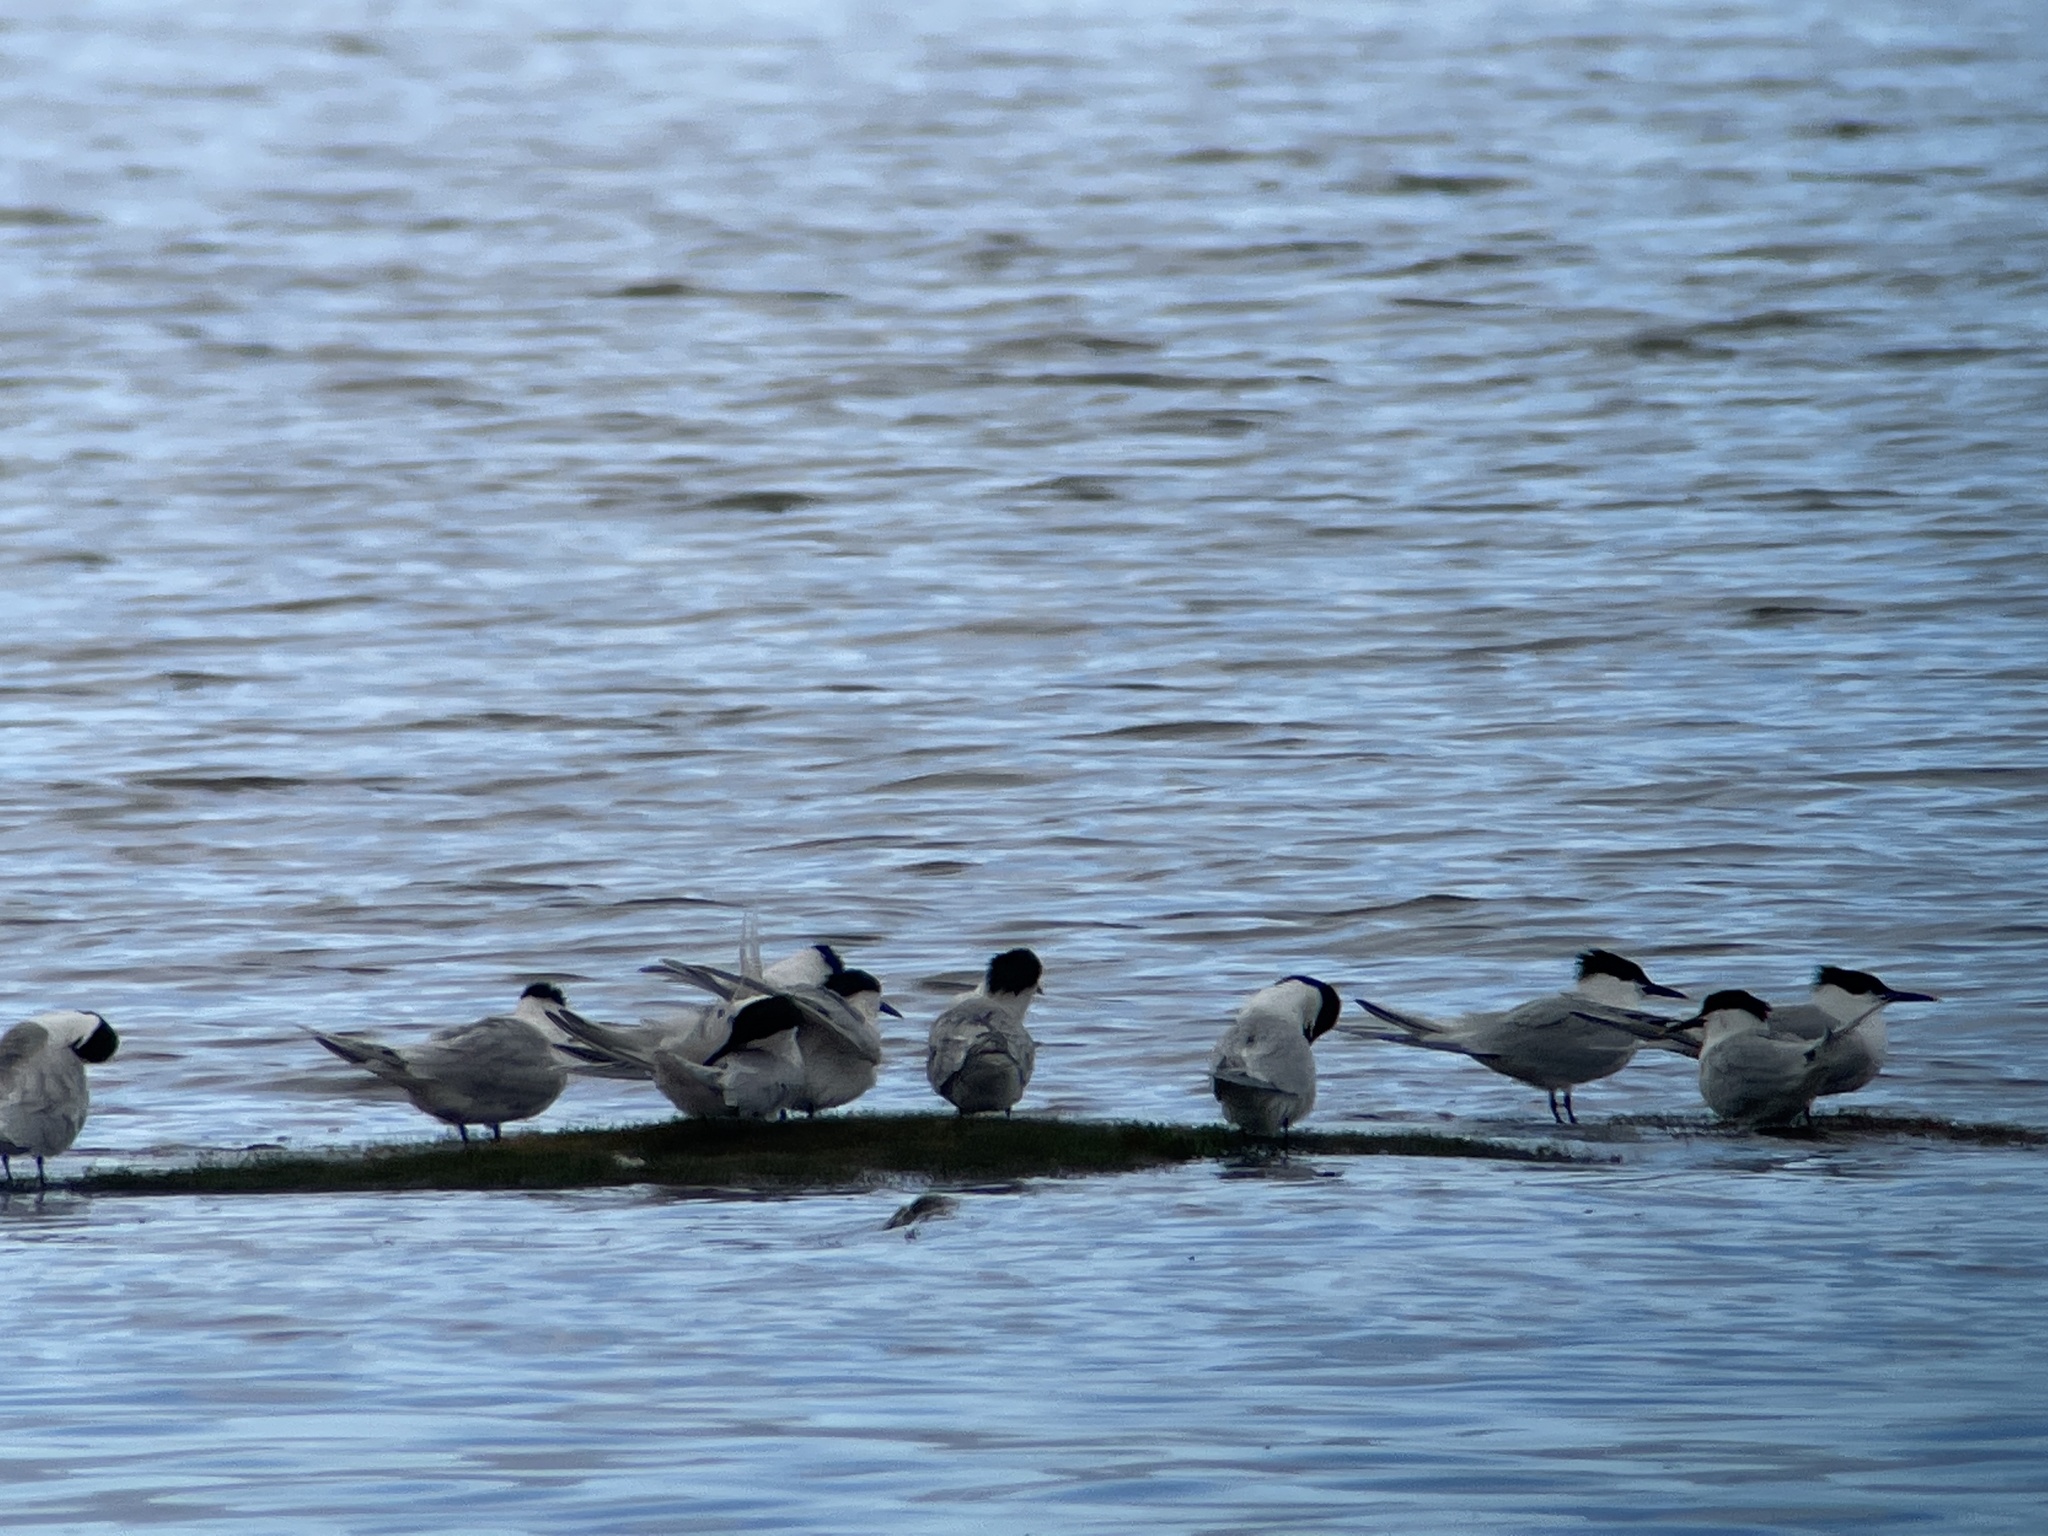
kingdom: Animalia
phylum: Chordata
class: Aves
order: Charadriiformes
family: Laridae
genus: Thalasseus
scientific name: Thalasseus sandvicensis
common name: Sandwich tern
